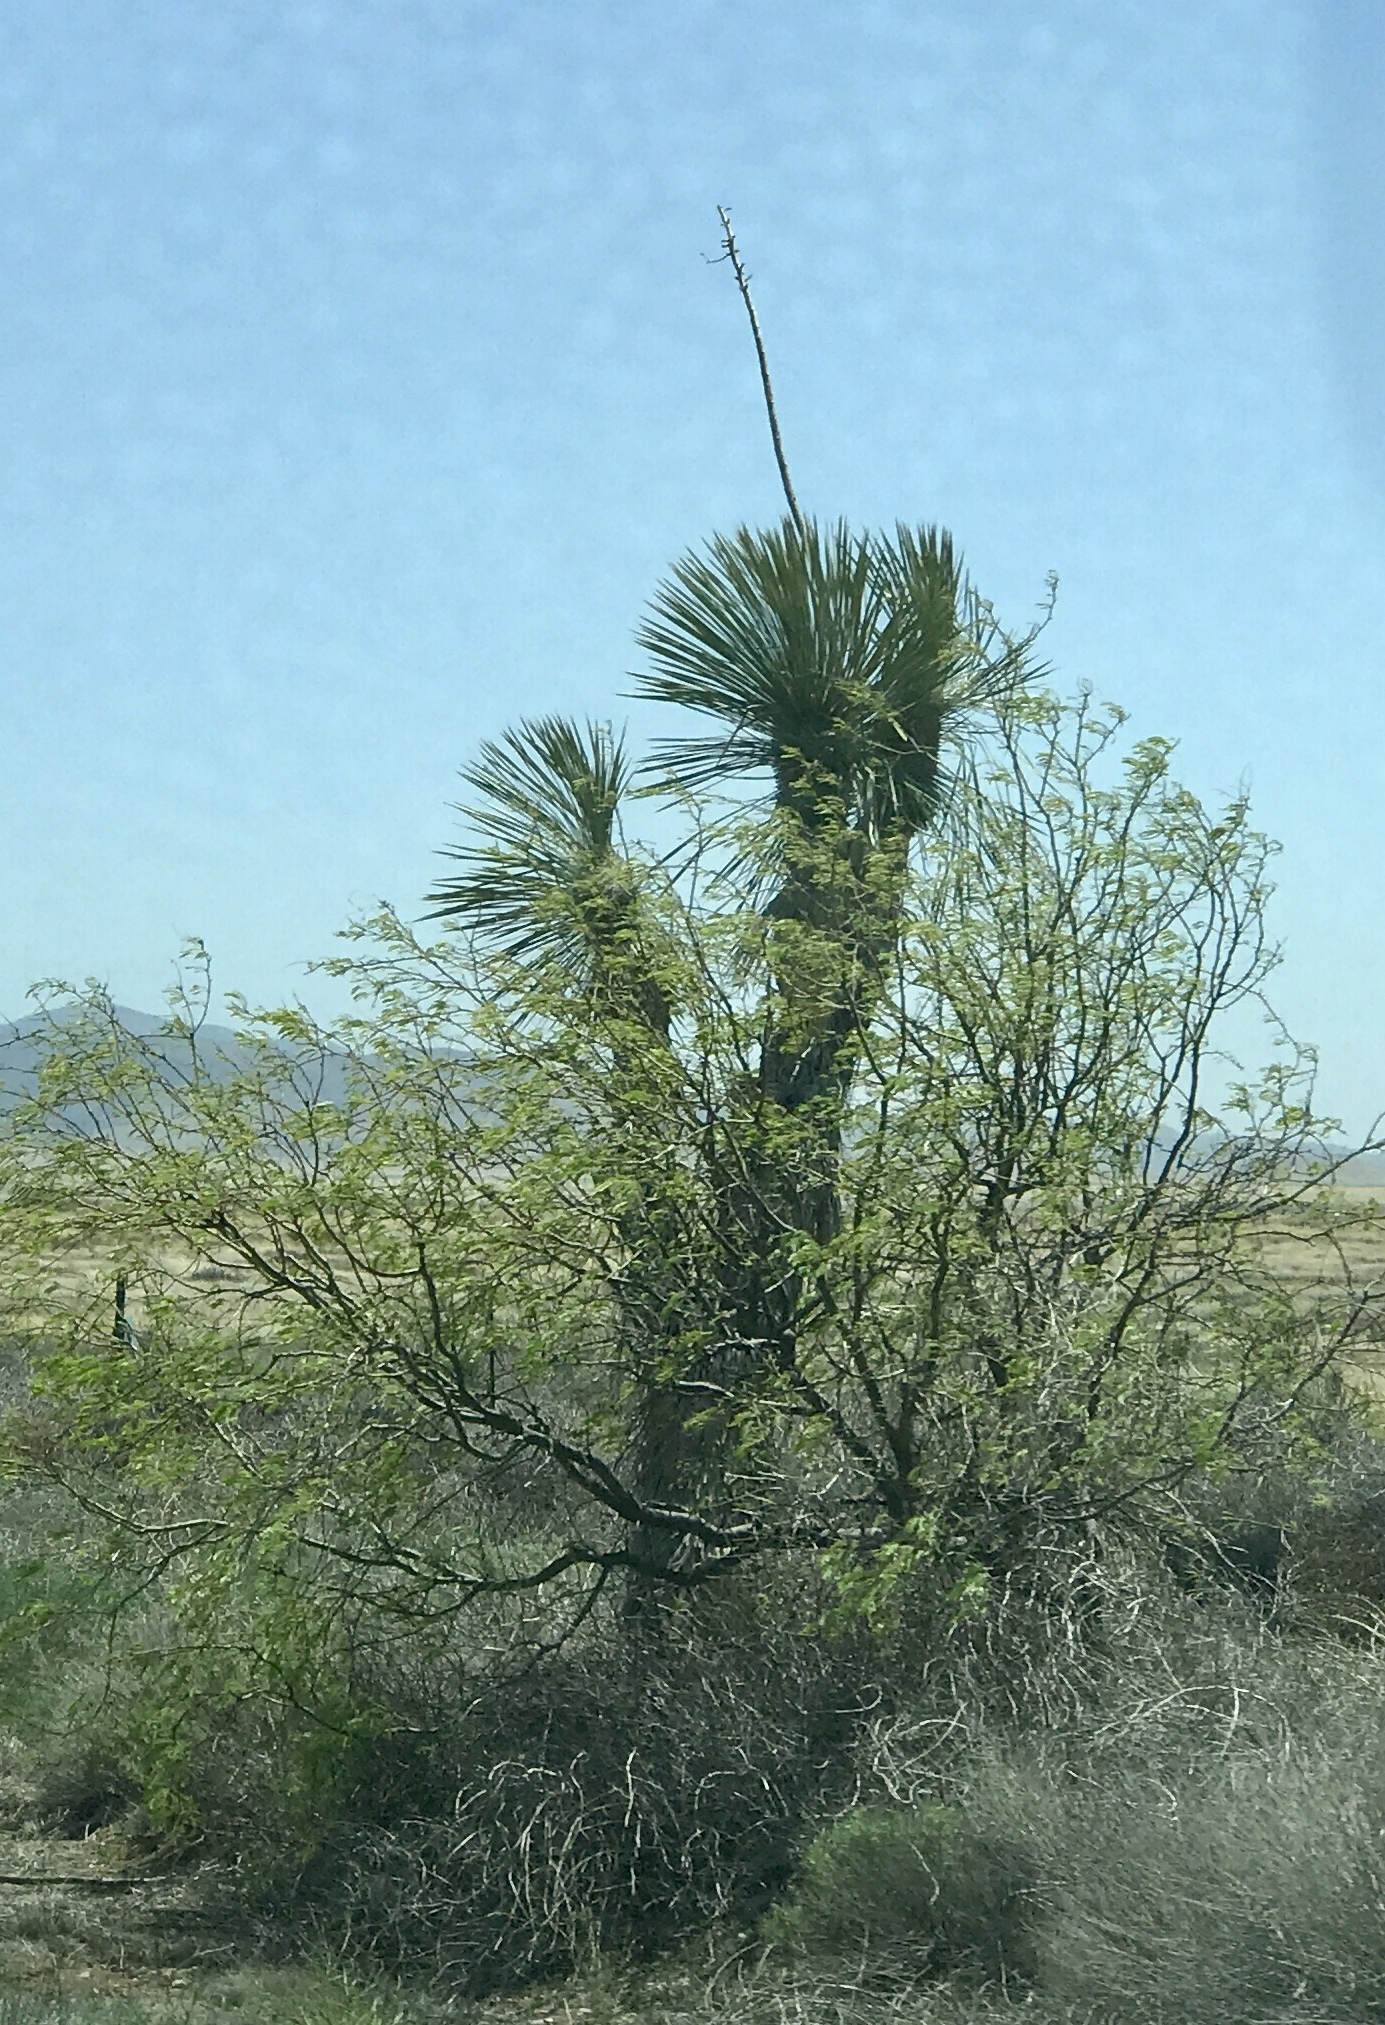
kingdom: Plantae
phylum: Tracheophyta
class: Liliopsida
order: Asparagales
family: Asparagaceae
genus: Yucca
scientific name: Yucca elata
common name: Palmella
